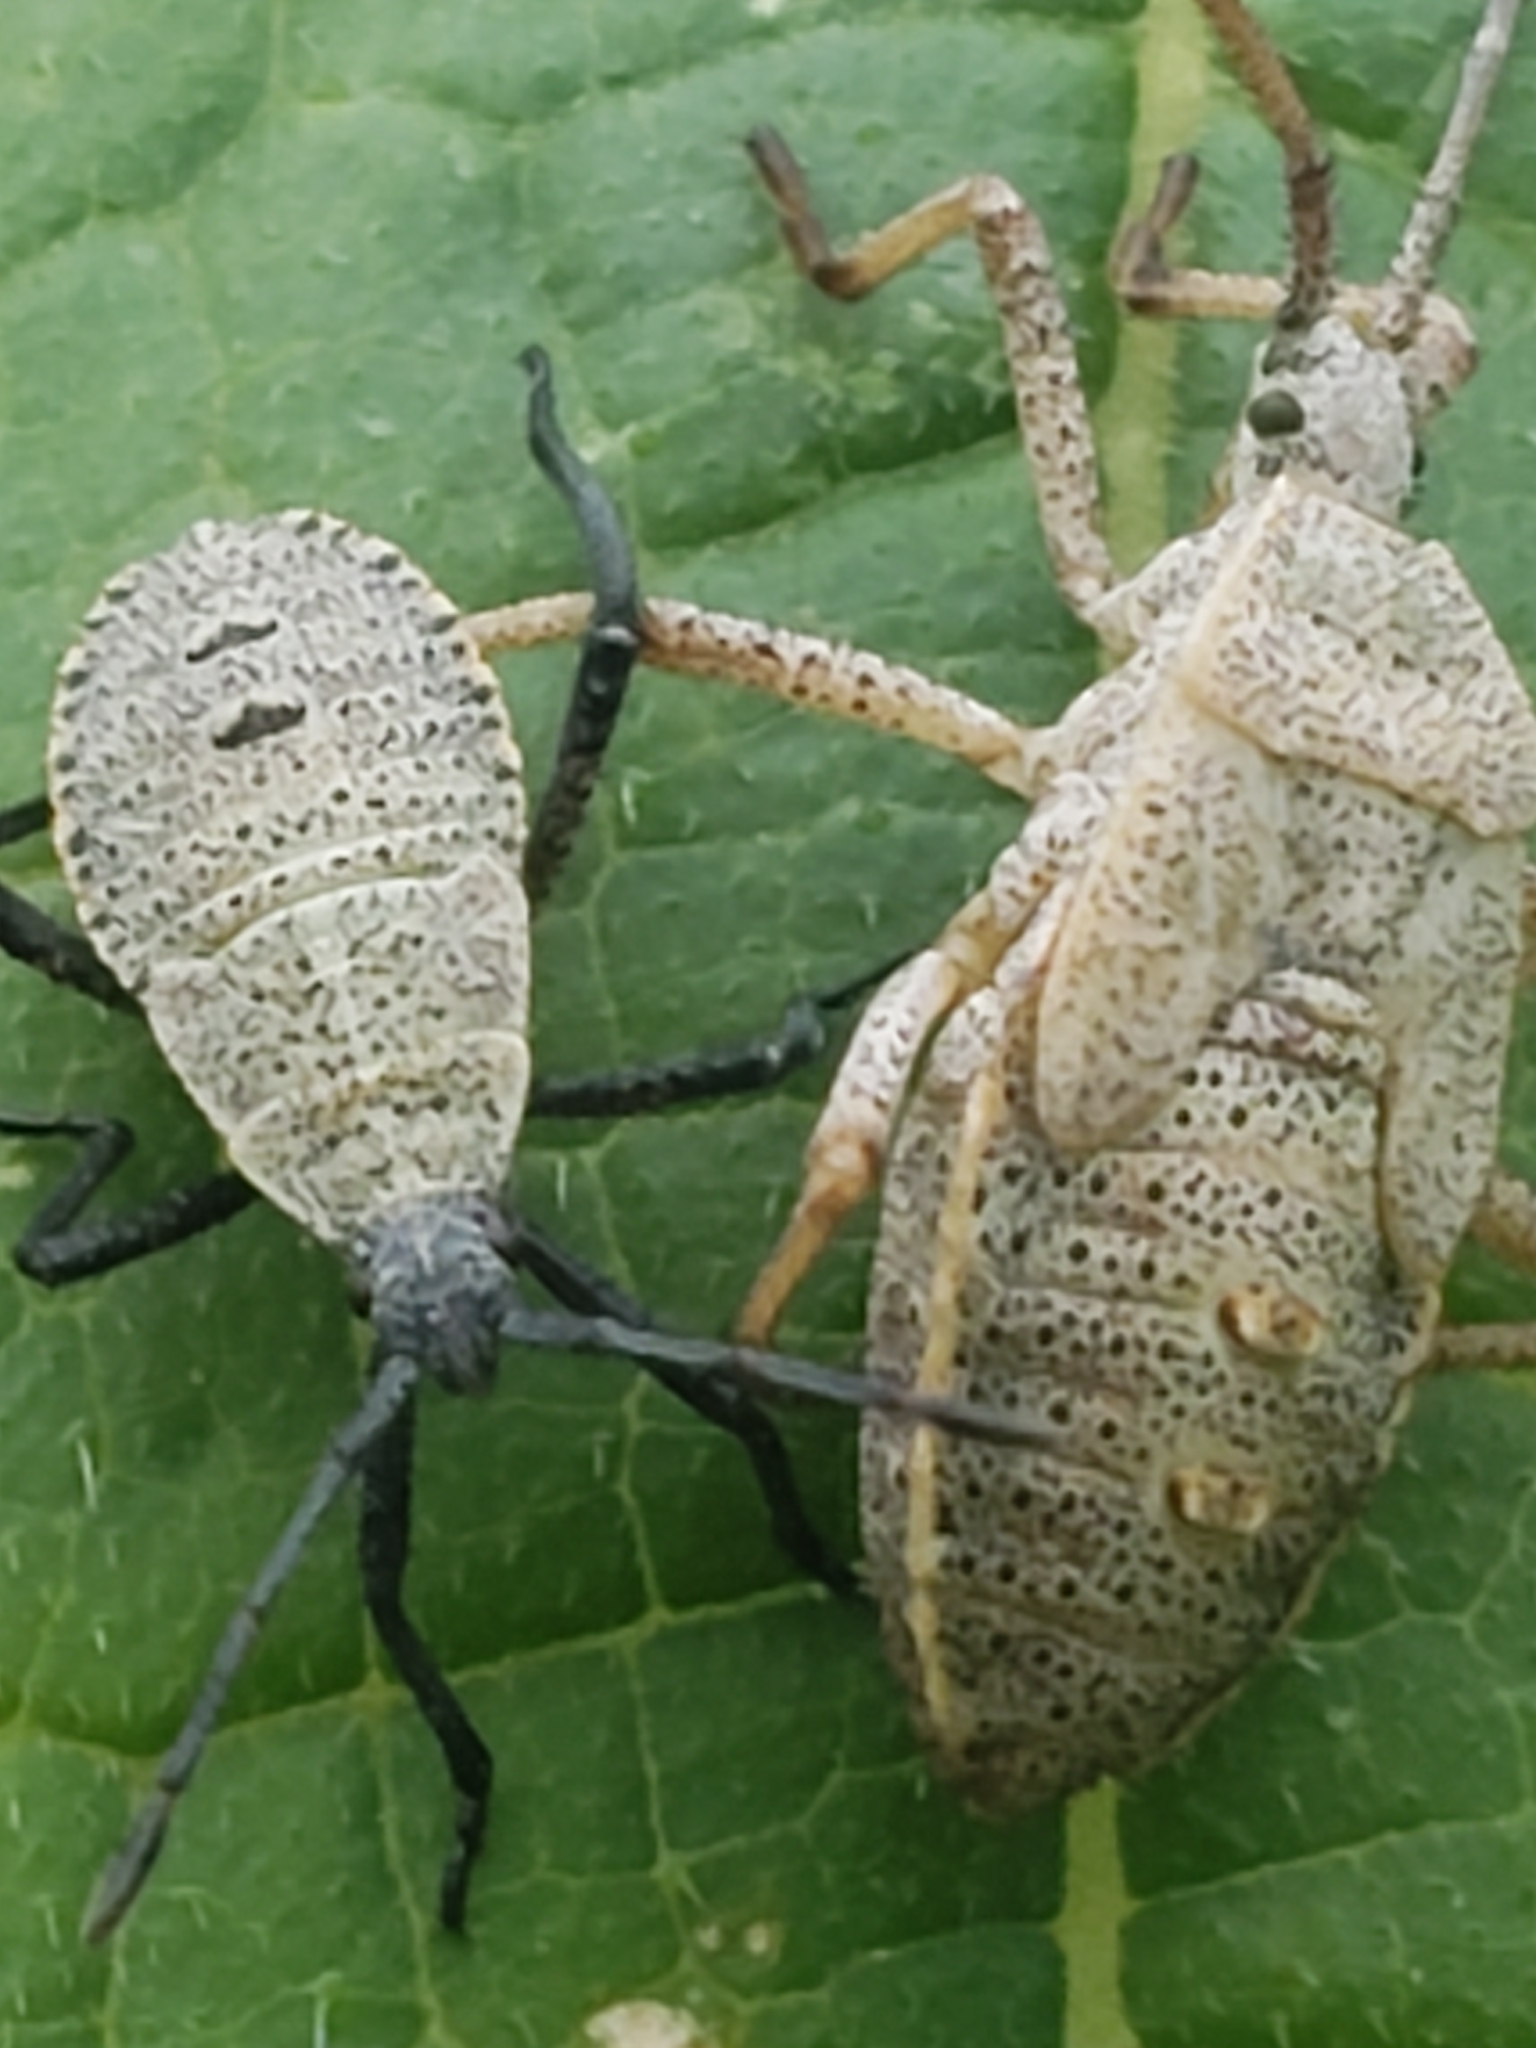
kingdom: Animalia
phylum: Arthropoda
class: Insecta
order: Hemiptera
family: Coreidae
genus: Anasa
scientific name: Anasa tristis
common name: Squash bug
